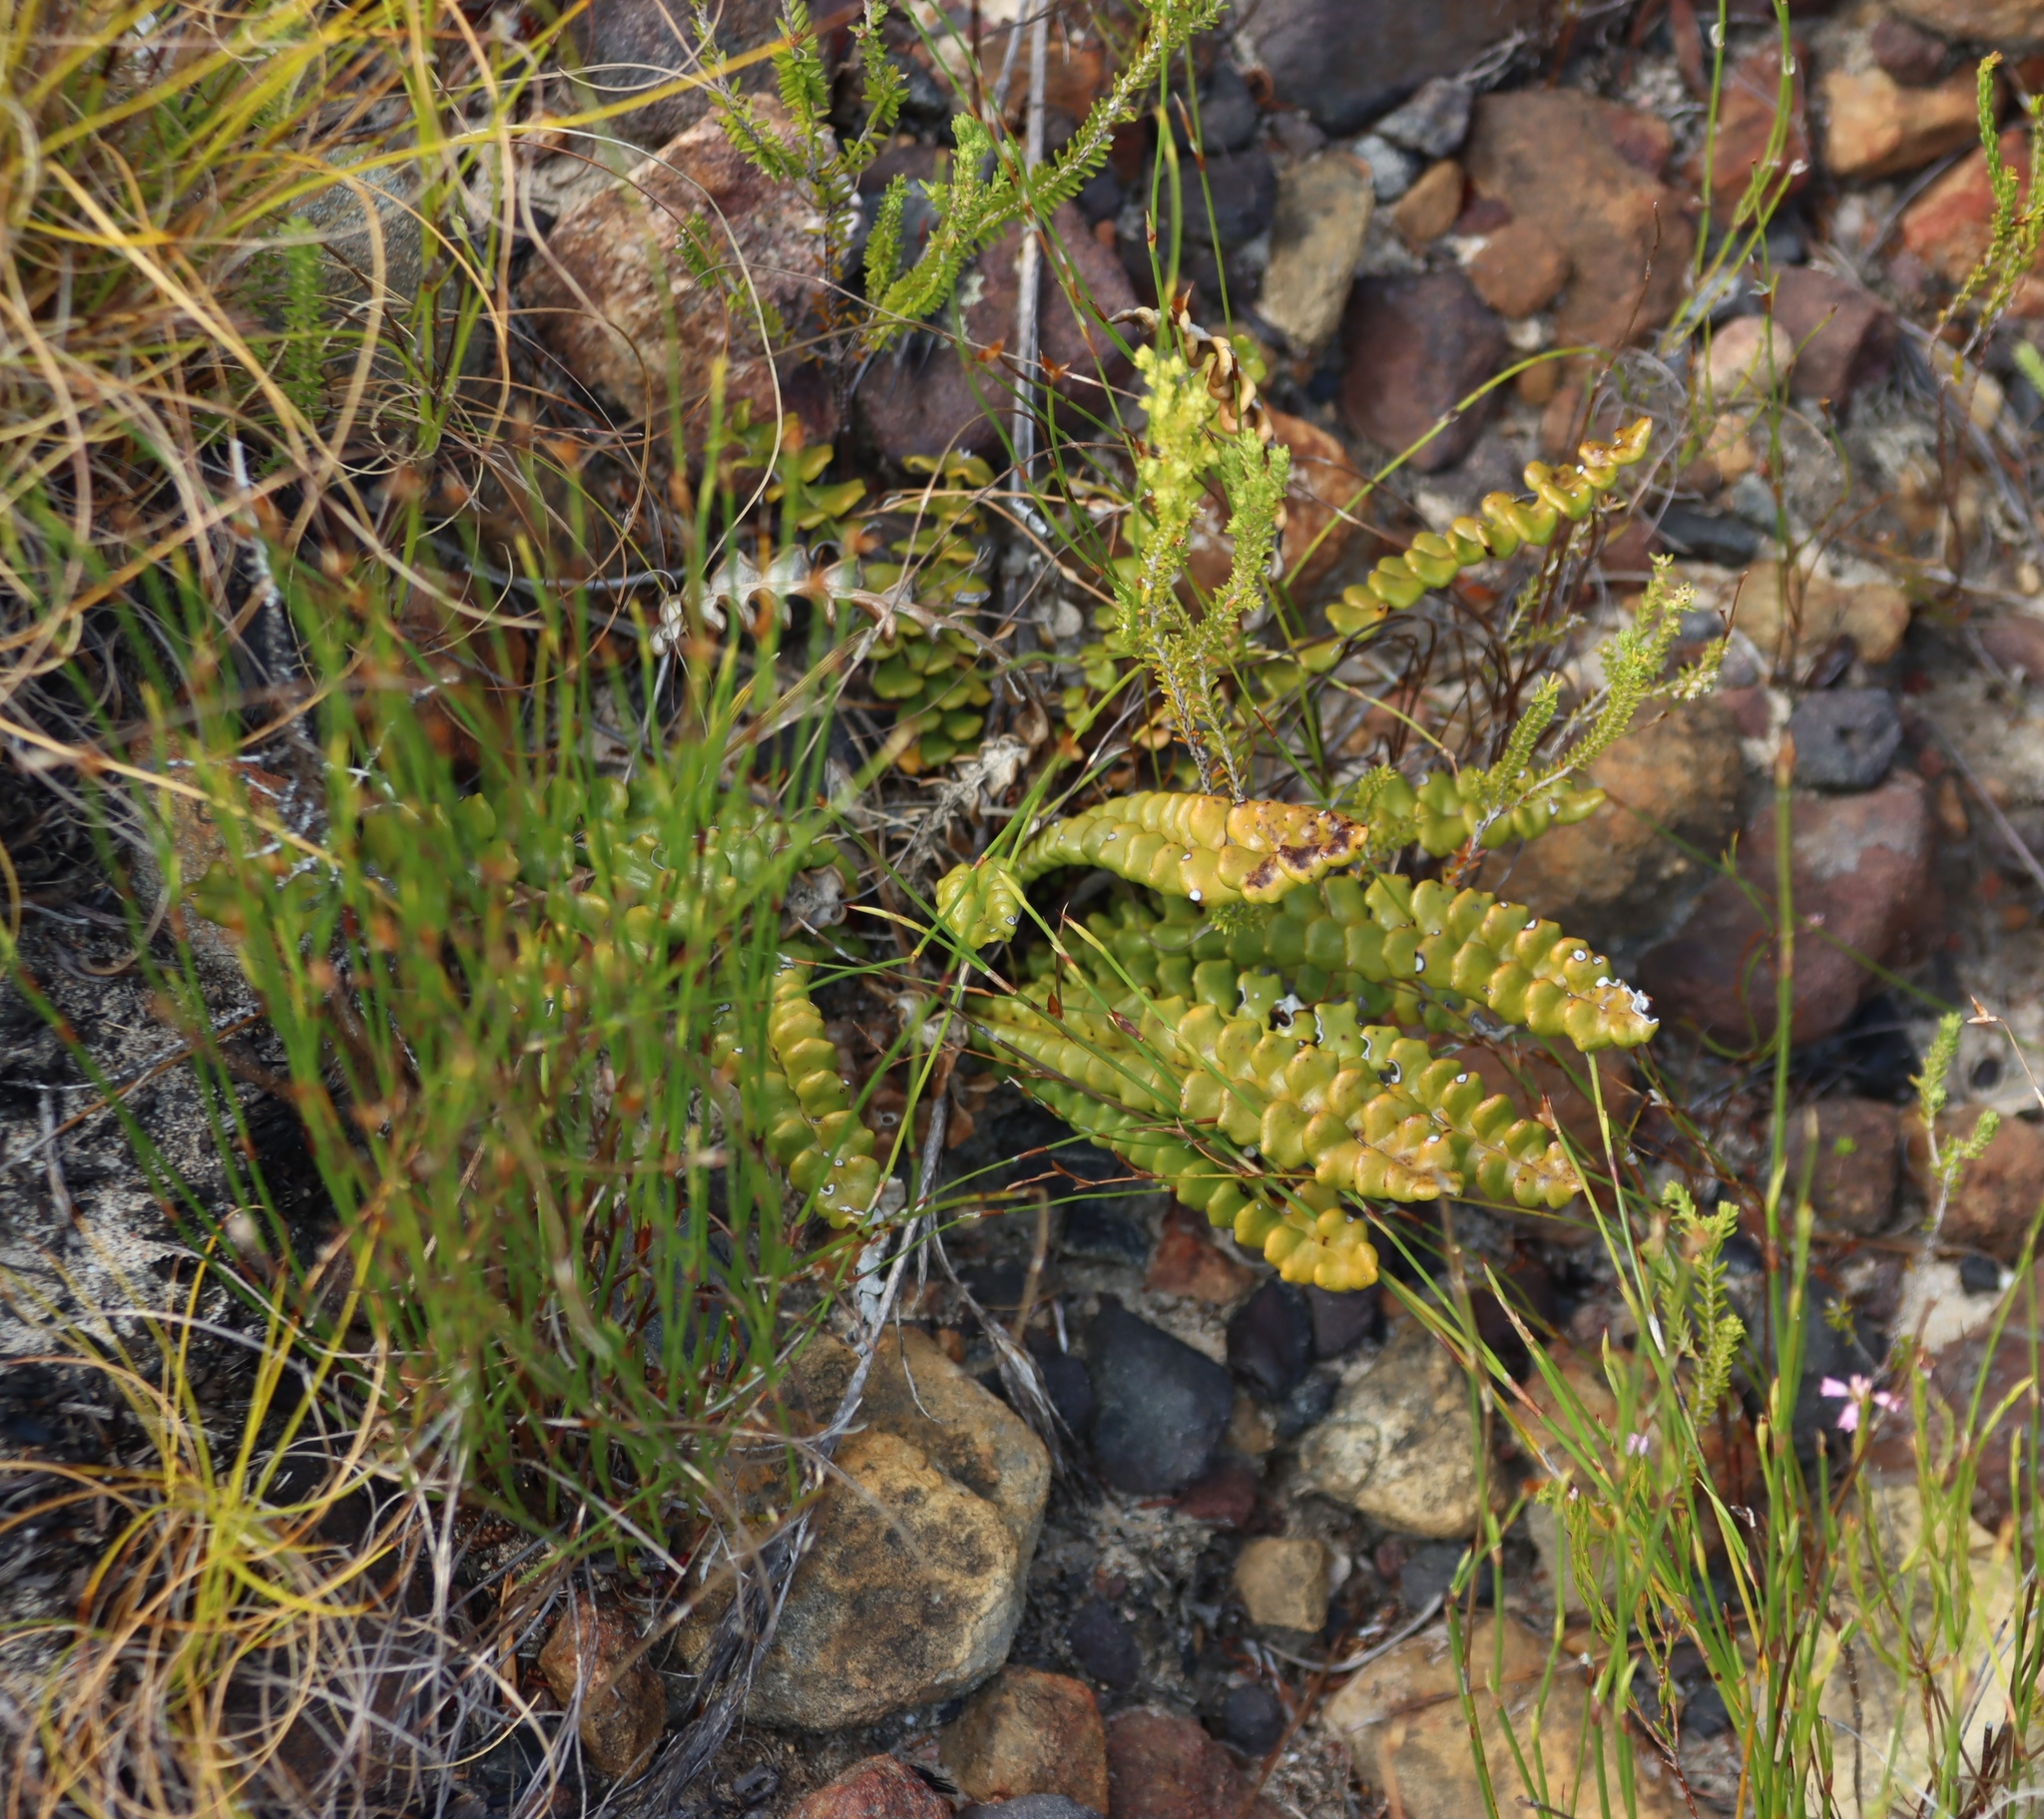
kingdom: Plantae
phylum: Tracheophyta
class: Magnoliopsida
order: Asterales
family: Asteraceae
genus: Gerbera
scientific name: Gerbera linnaei
